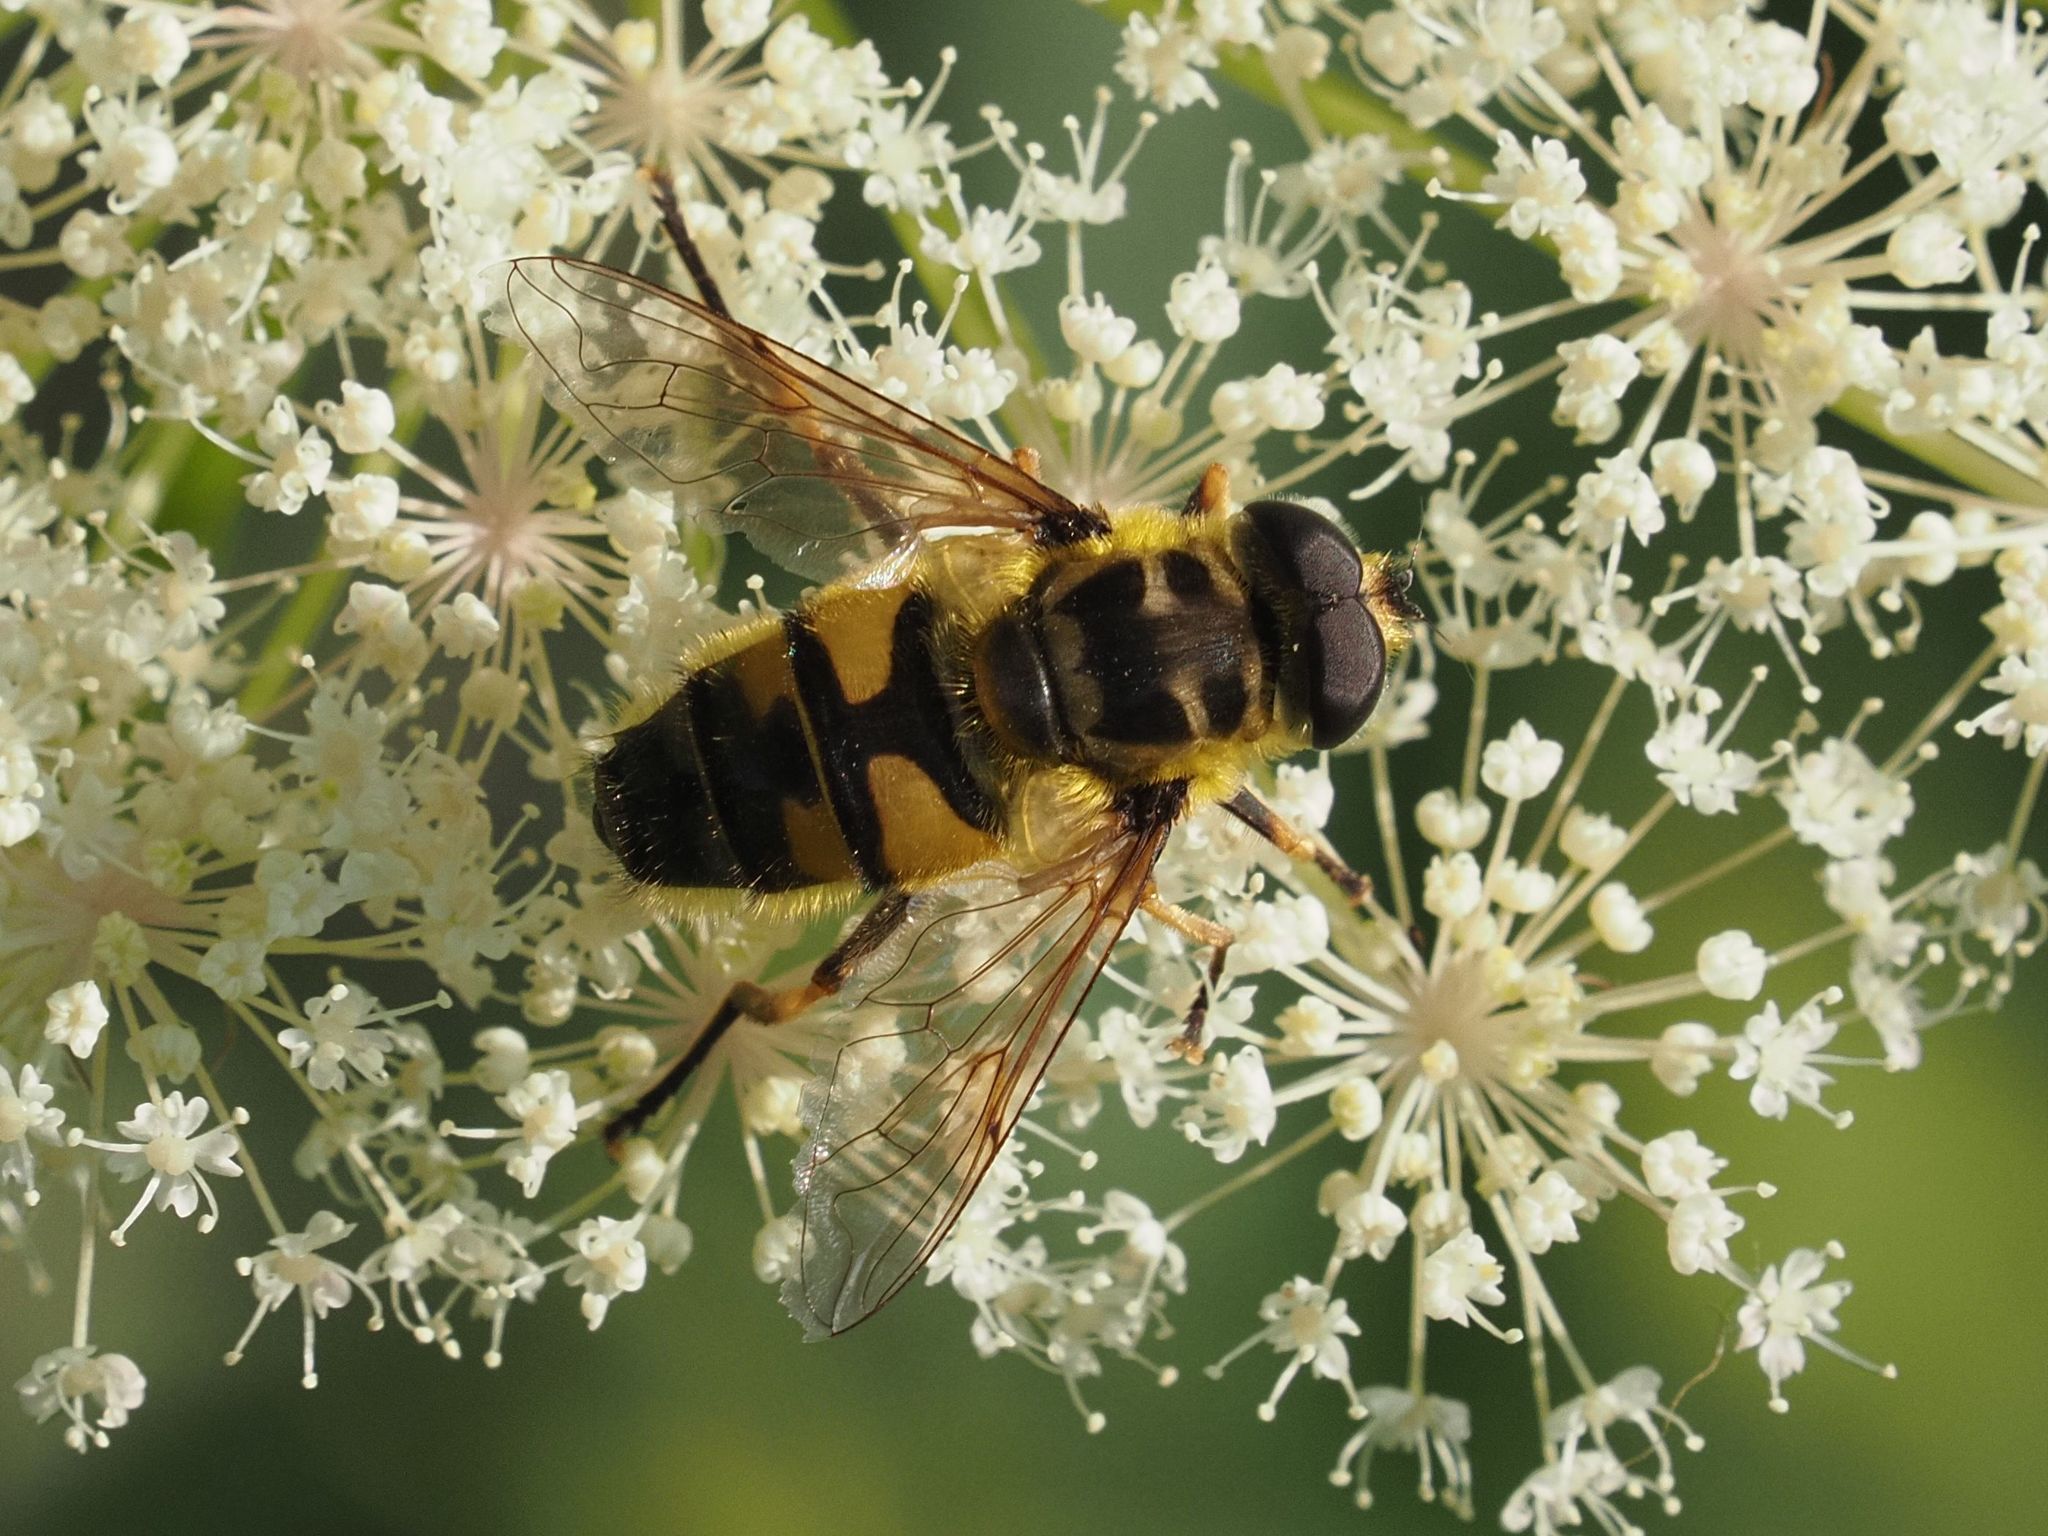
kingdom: Animalia
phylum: Arthropoda
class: Insecta
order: Diptera
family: Syrphidae
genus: Myathropa
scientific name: Myathropa florea
